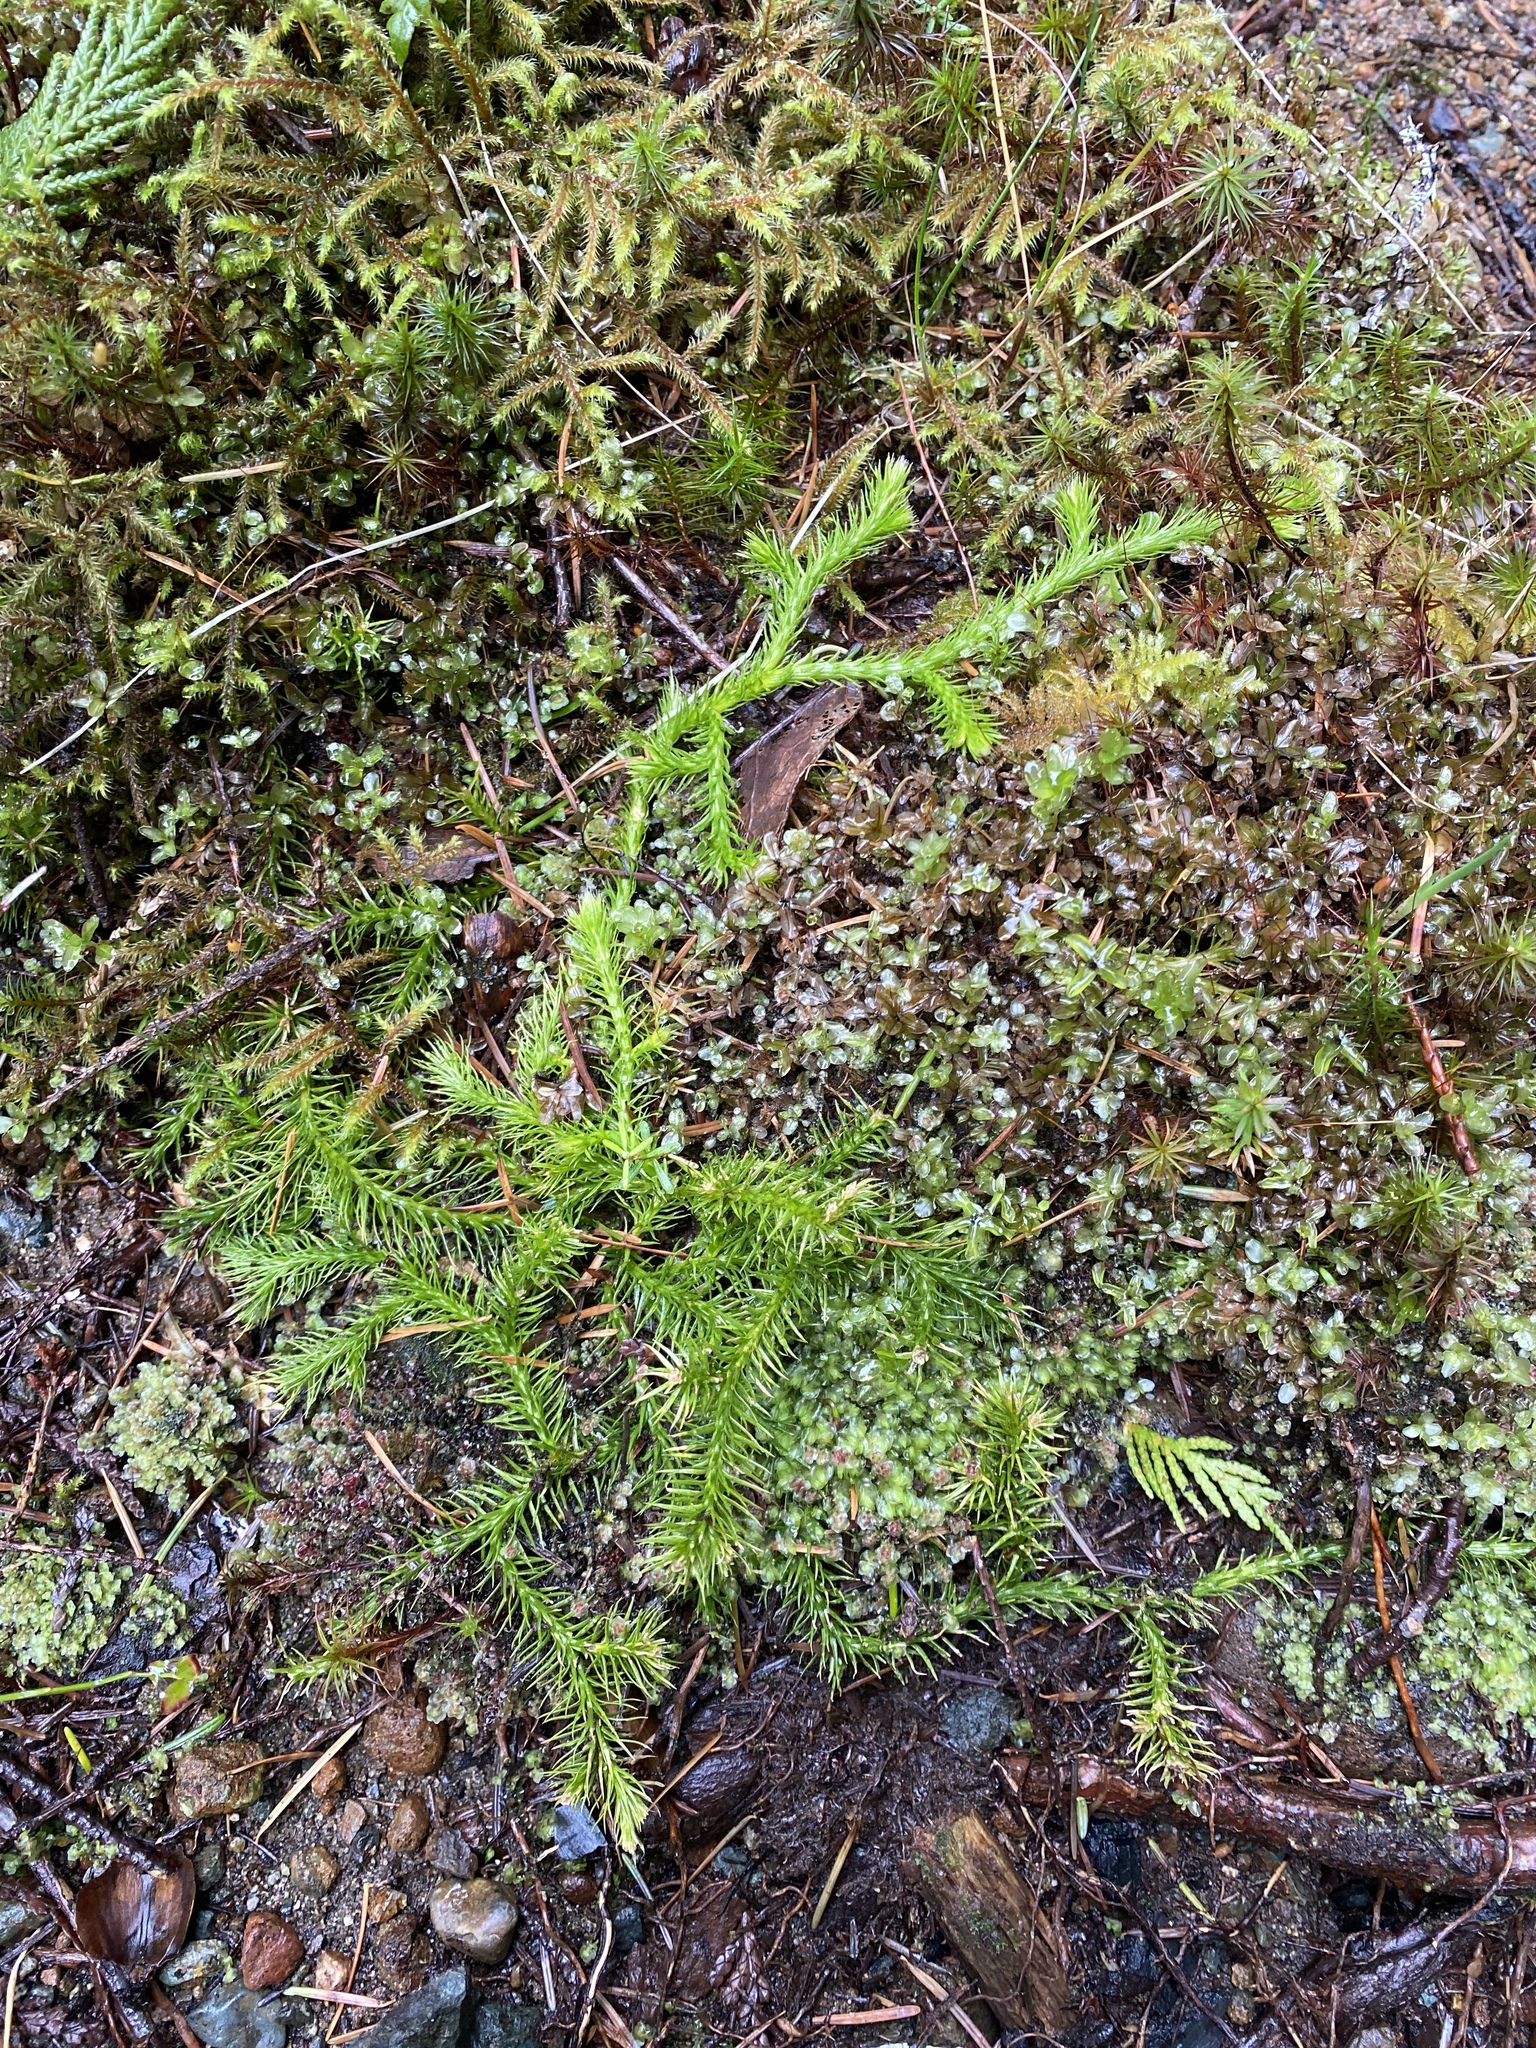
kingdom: Plantae
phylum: Tracheophyta
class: Lycopodiopsida
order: Lycopodiales
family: Lycopodiaceae
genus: Lycopodium
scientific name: Lycopodium clavatum
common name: Stag's-horn clubmoss
